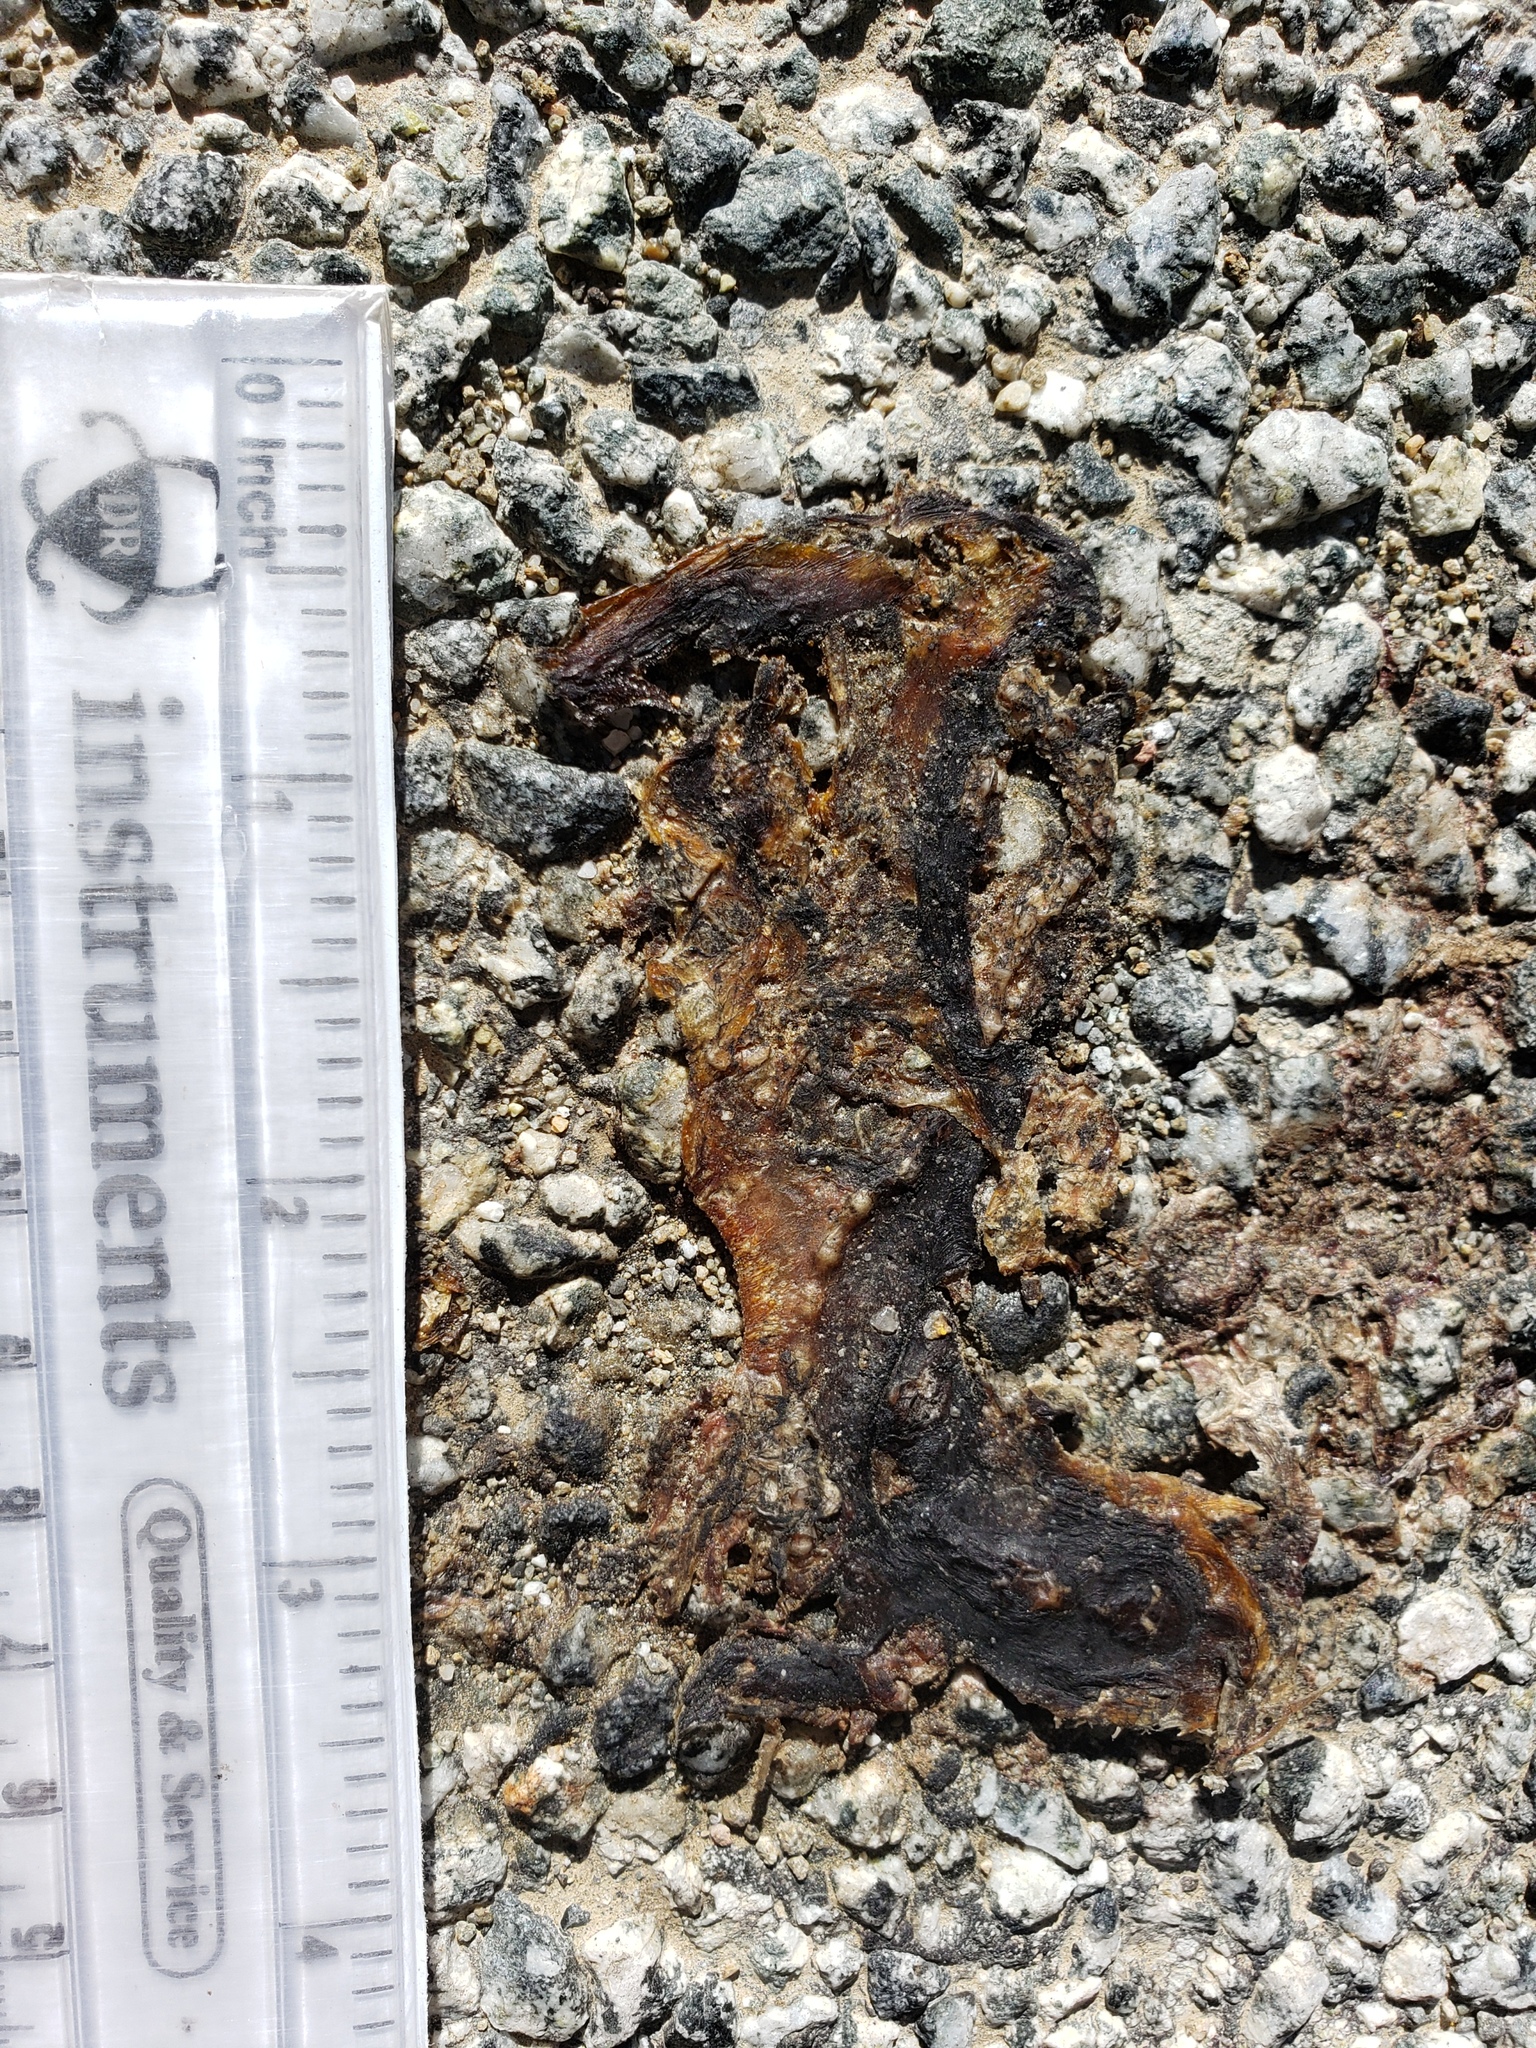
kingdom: Animalia
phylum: Chordata
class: Amphibia
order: Caudata
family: Salamandridae
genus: Taricha
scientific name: Taricha
